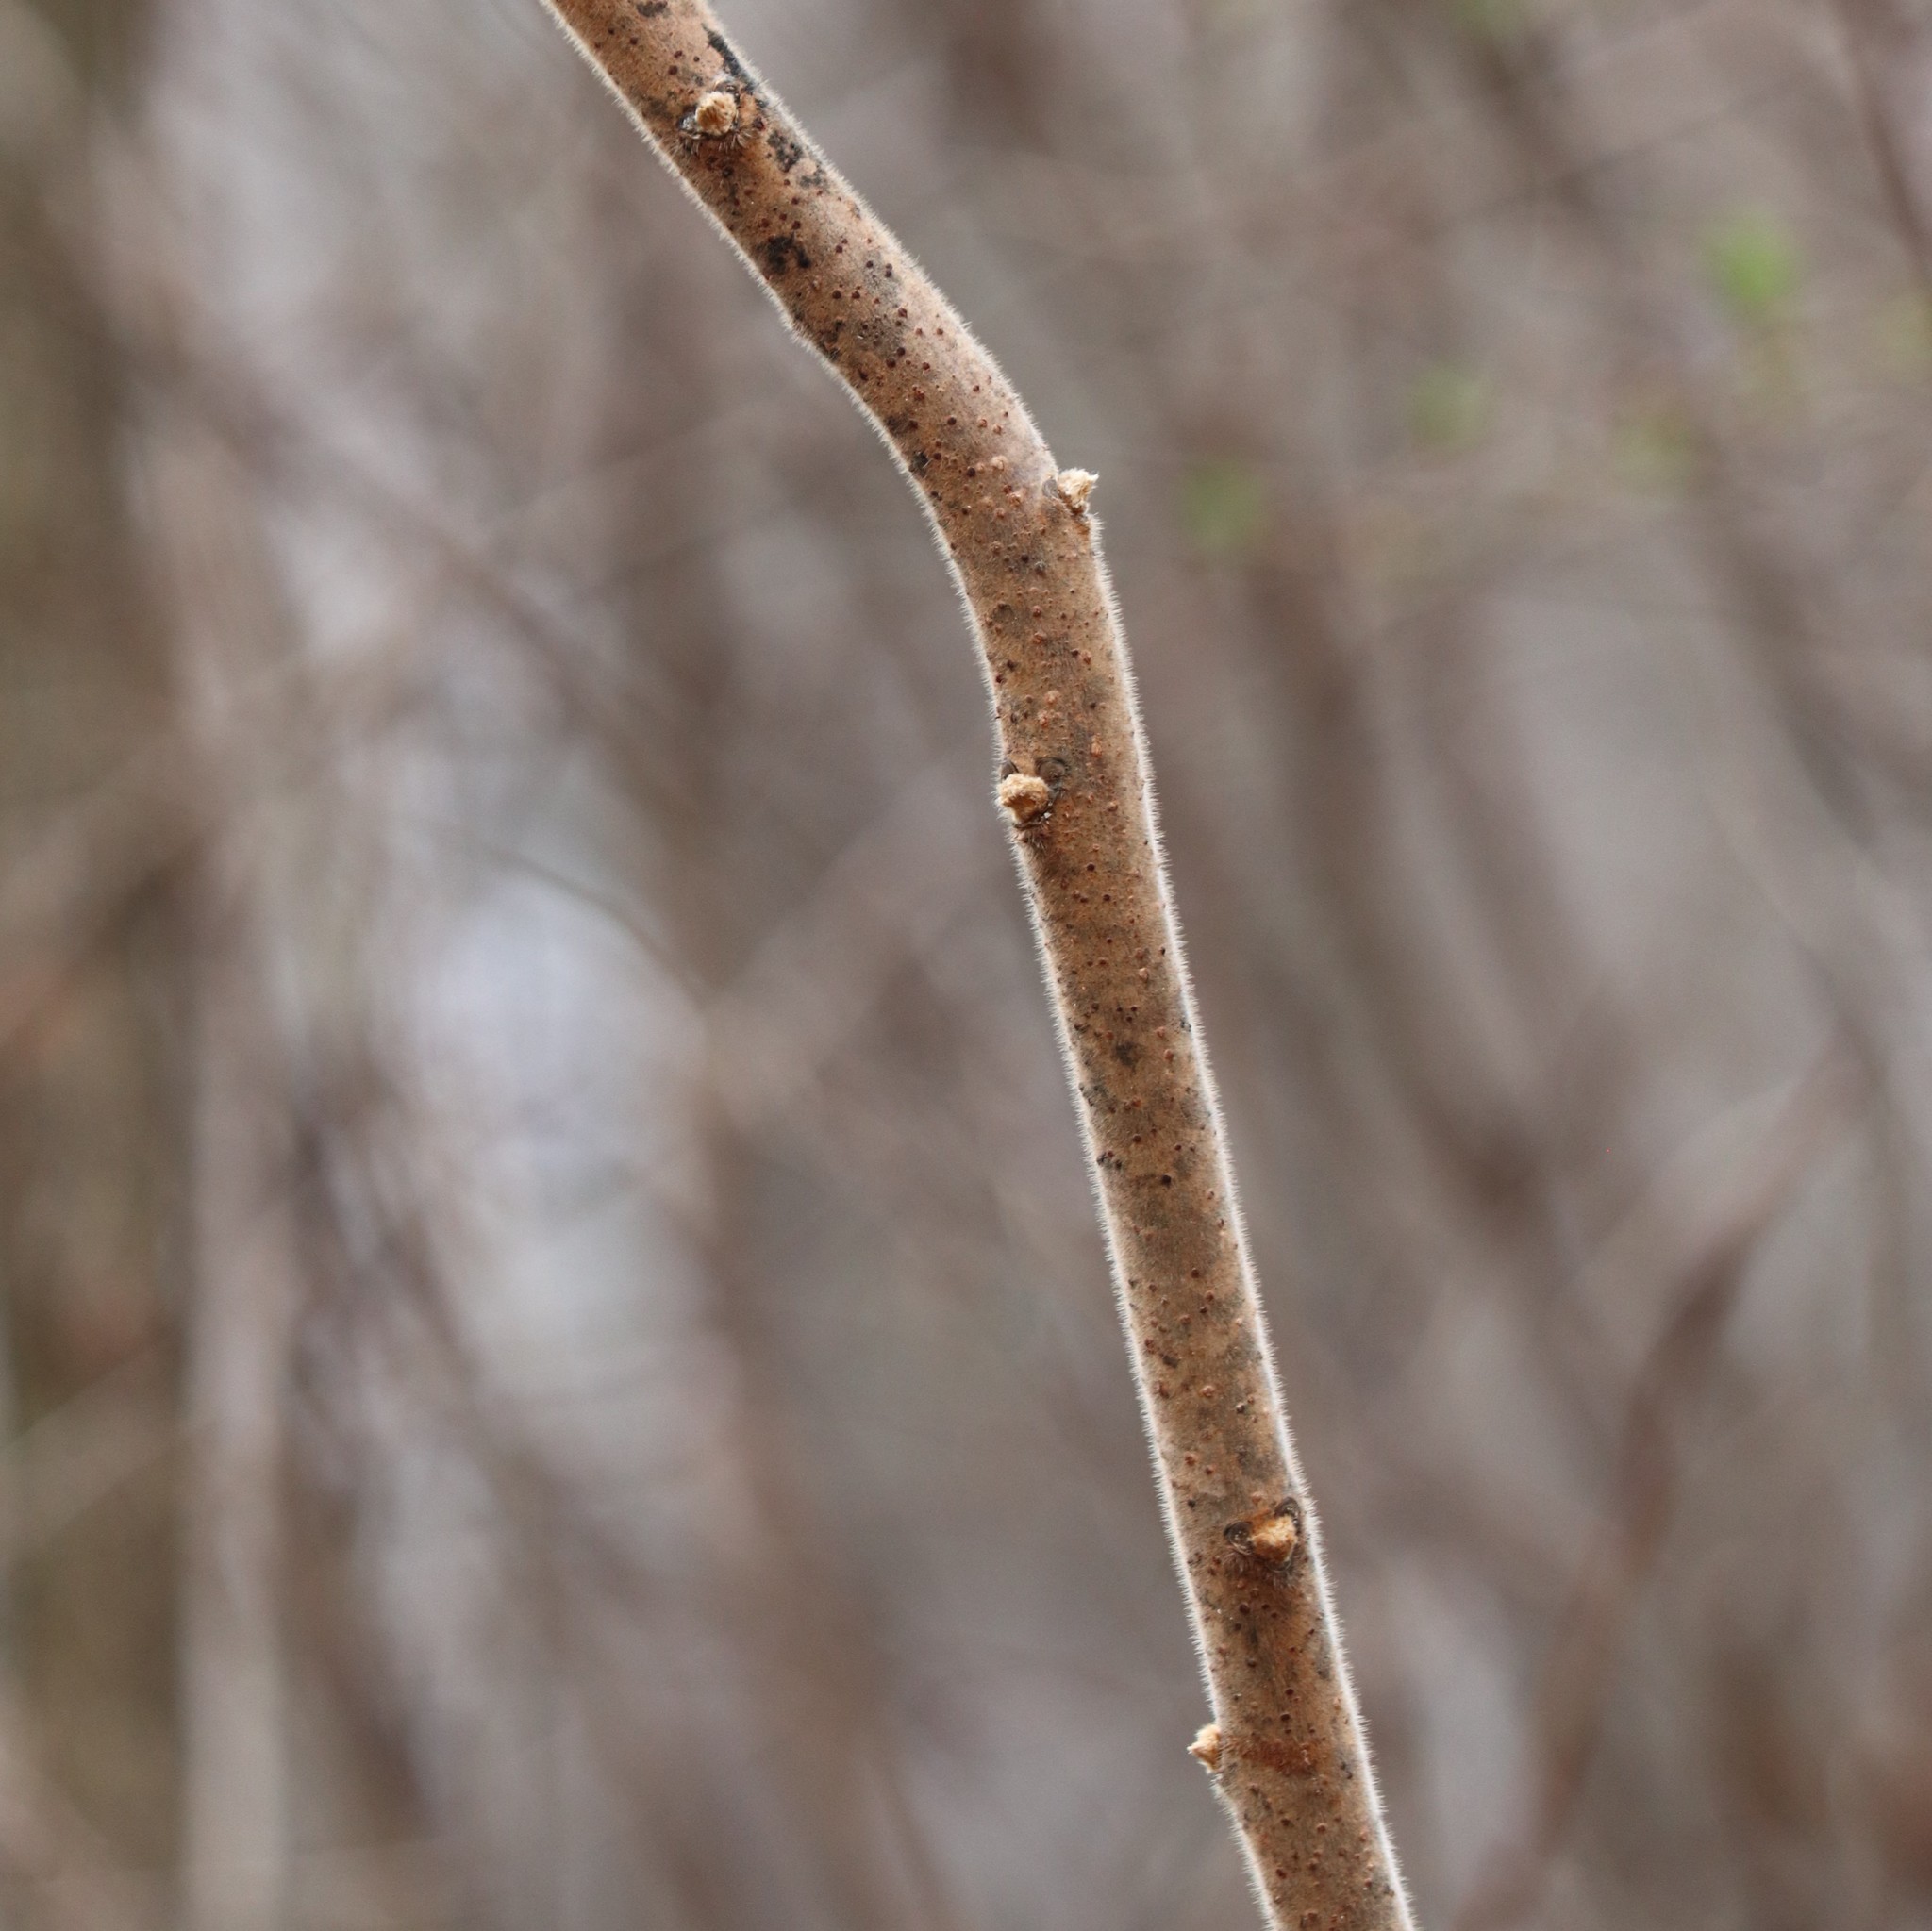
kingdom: Plantae
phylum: Tracheophyta
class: Magnoliopsida
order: Sapindales
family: Anacardiaceae
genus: Rhus
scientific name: Rhus typhina
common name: Staghorn sumac
